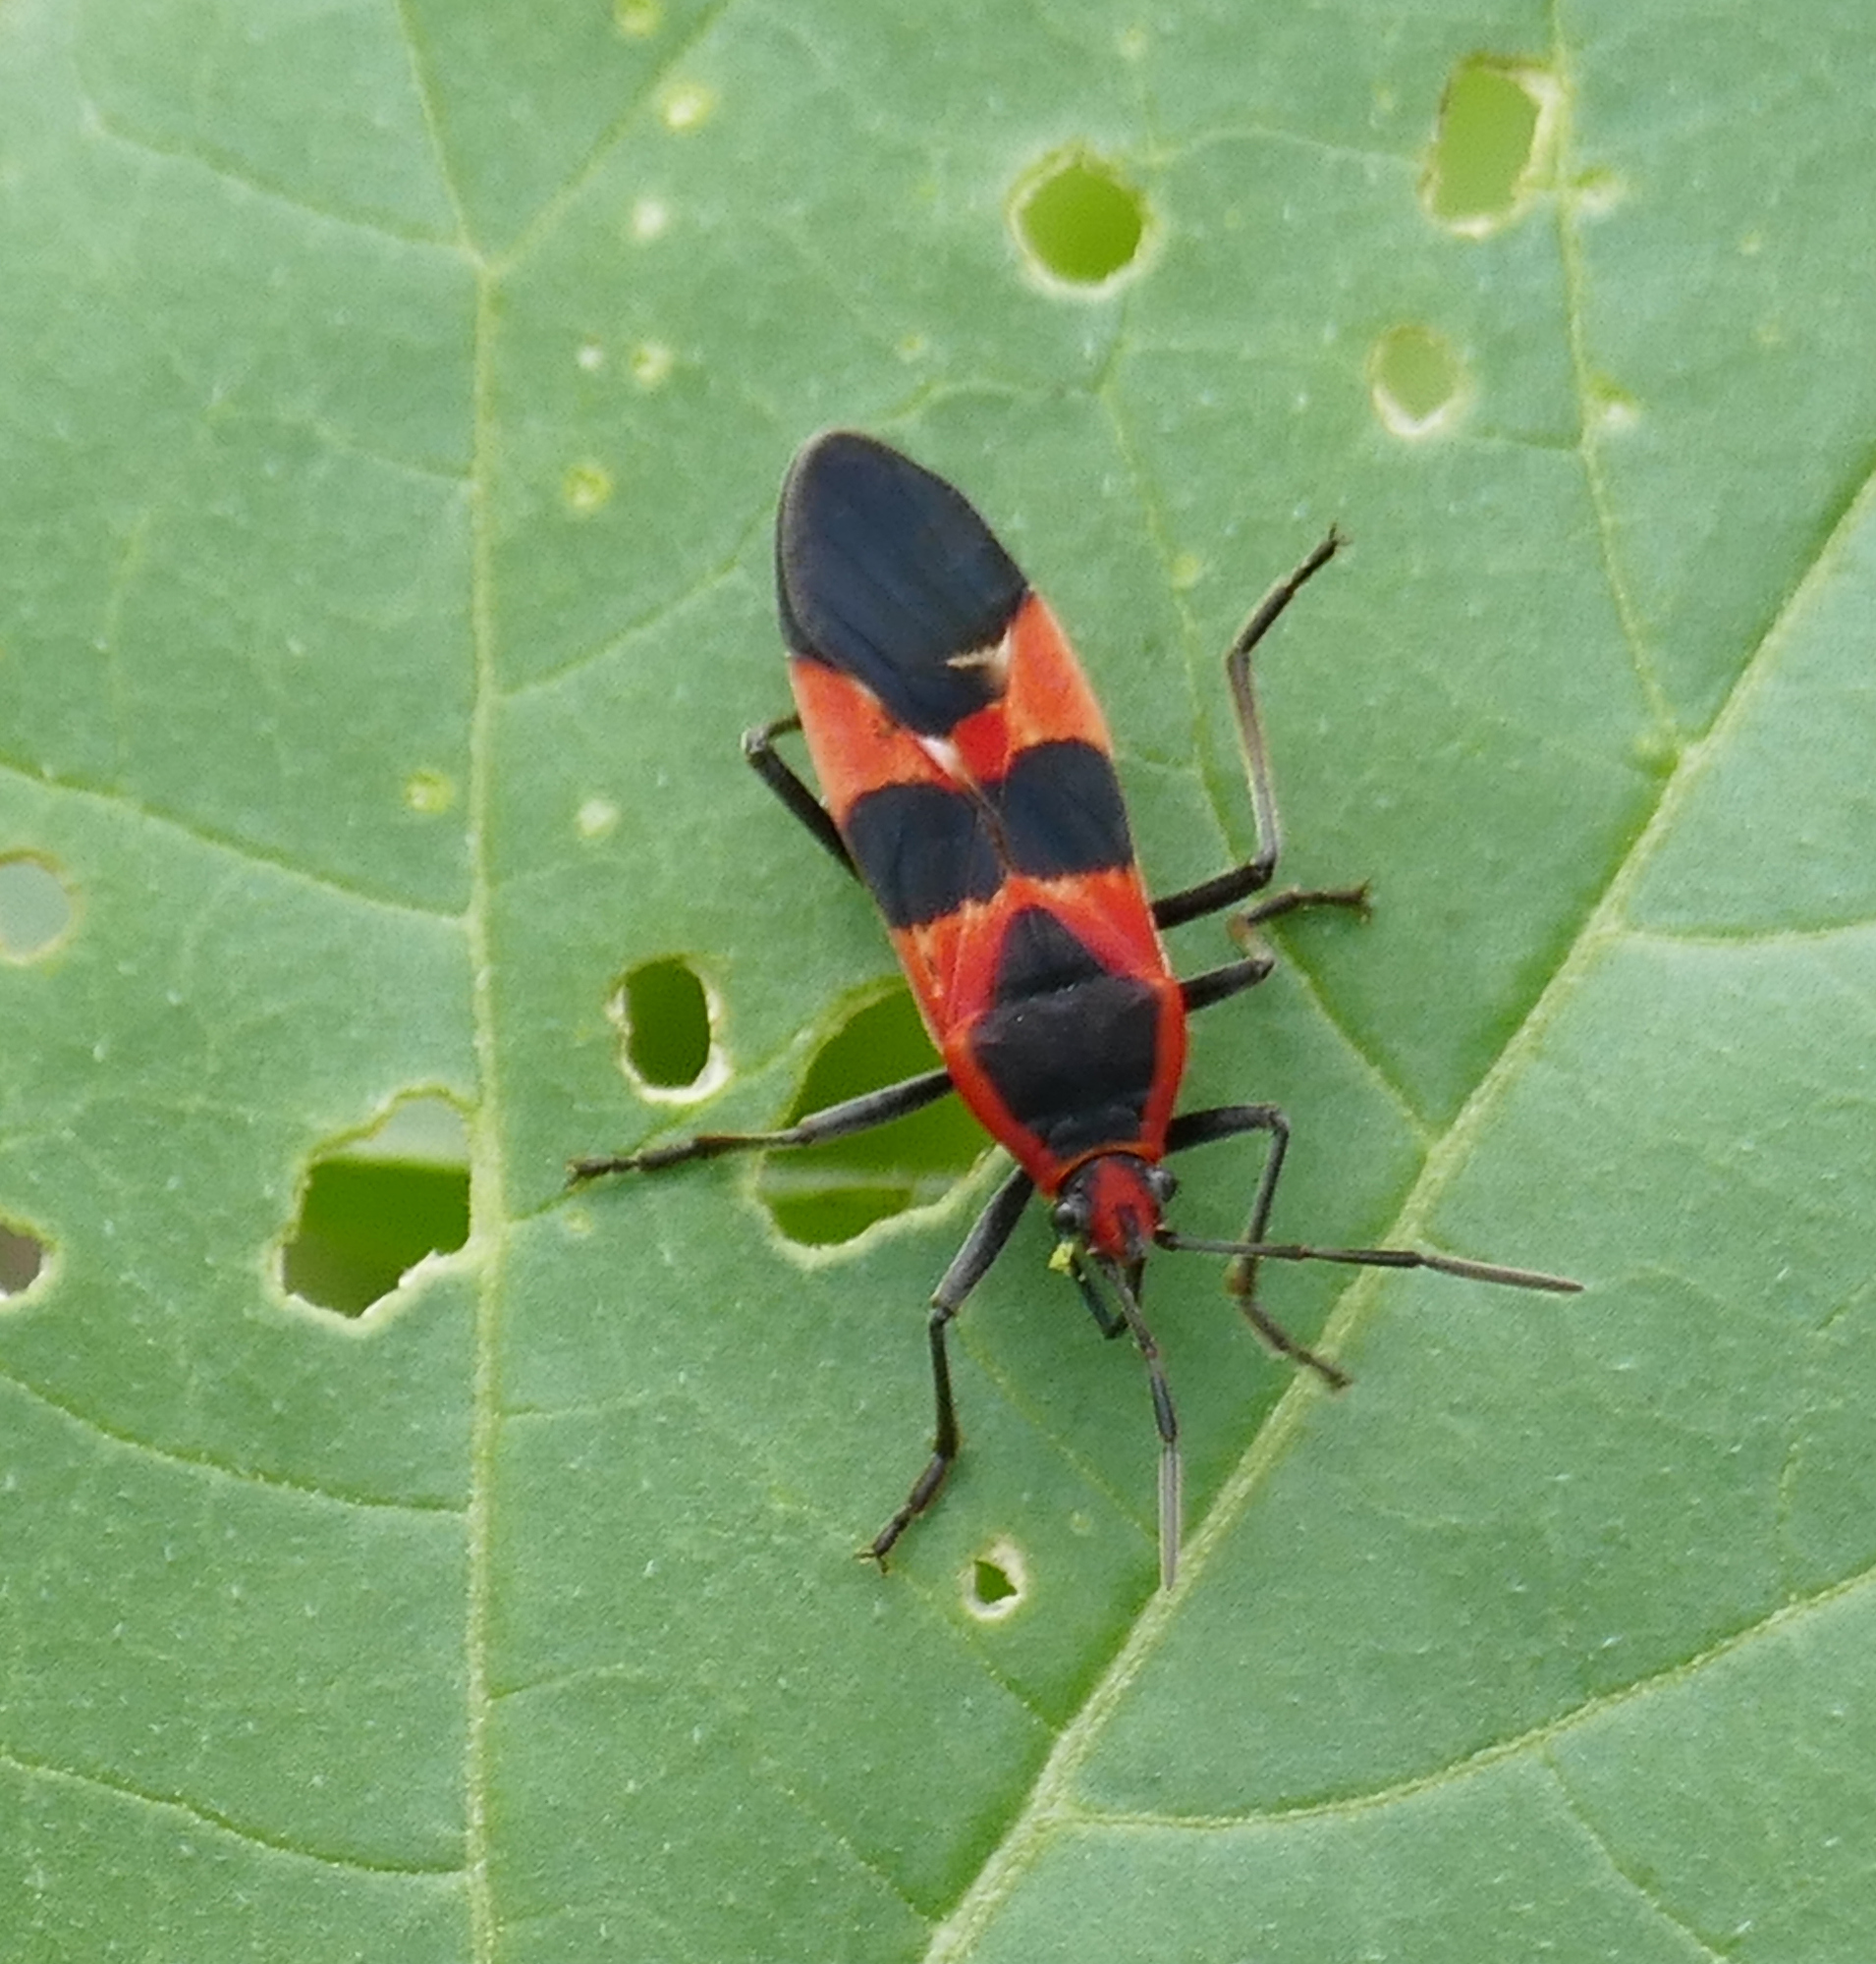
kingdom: Animalia
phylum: Arthropoda
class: Insecta
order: Hemiptera
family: Lygaeidae
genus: Oncopeltus
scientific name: Oncopeltus fasciatus
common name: Large milkweed bug
